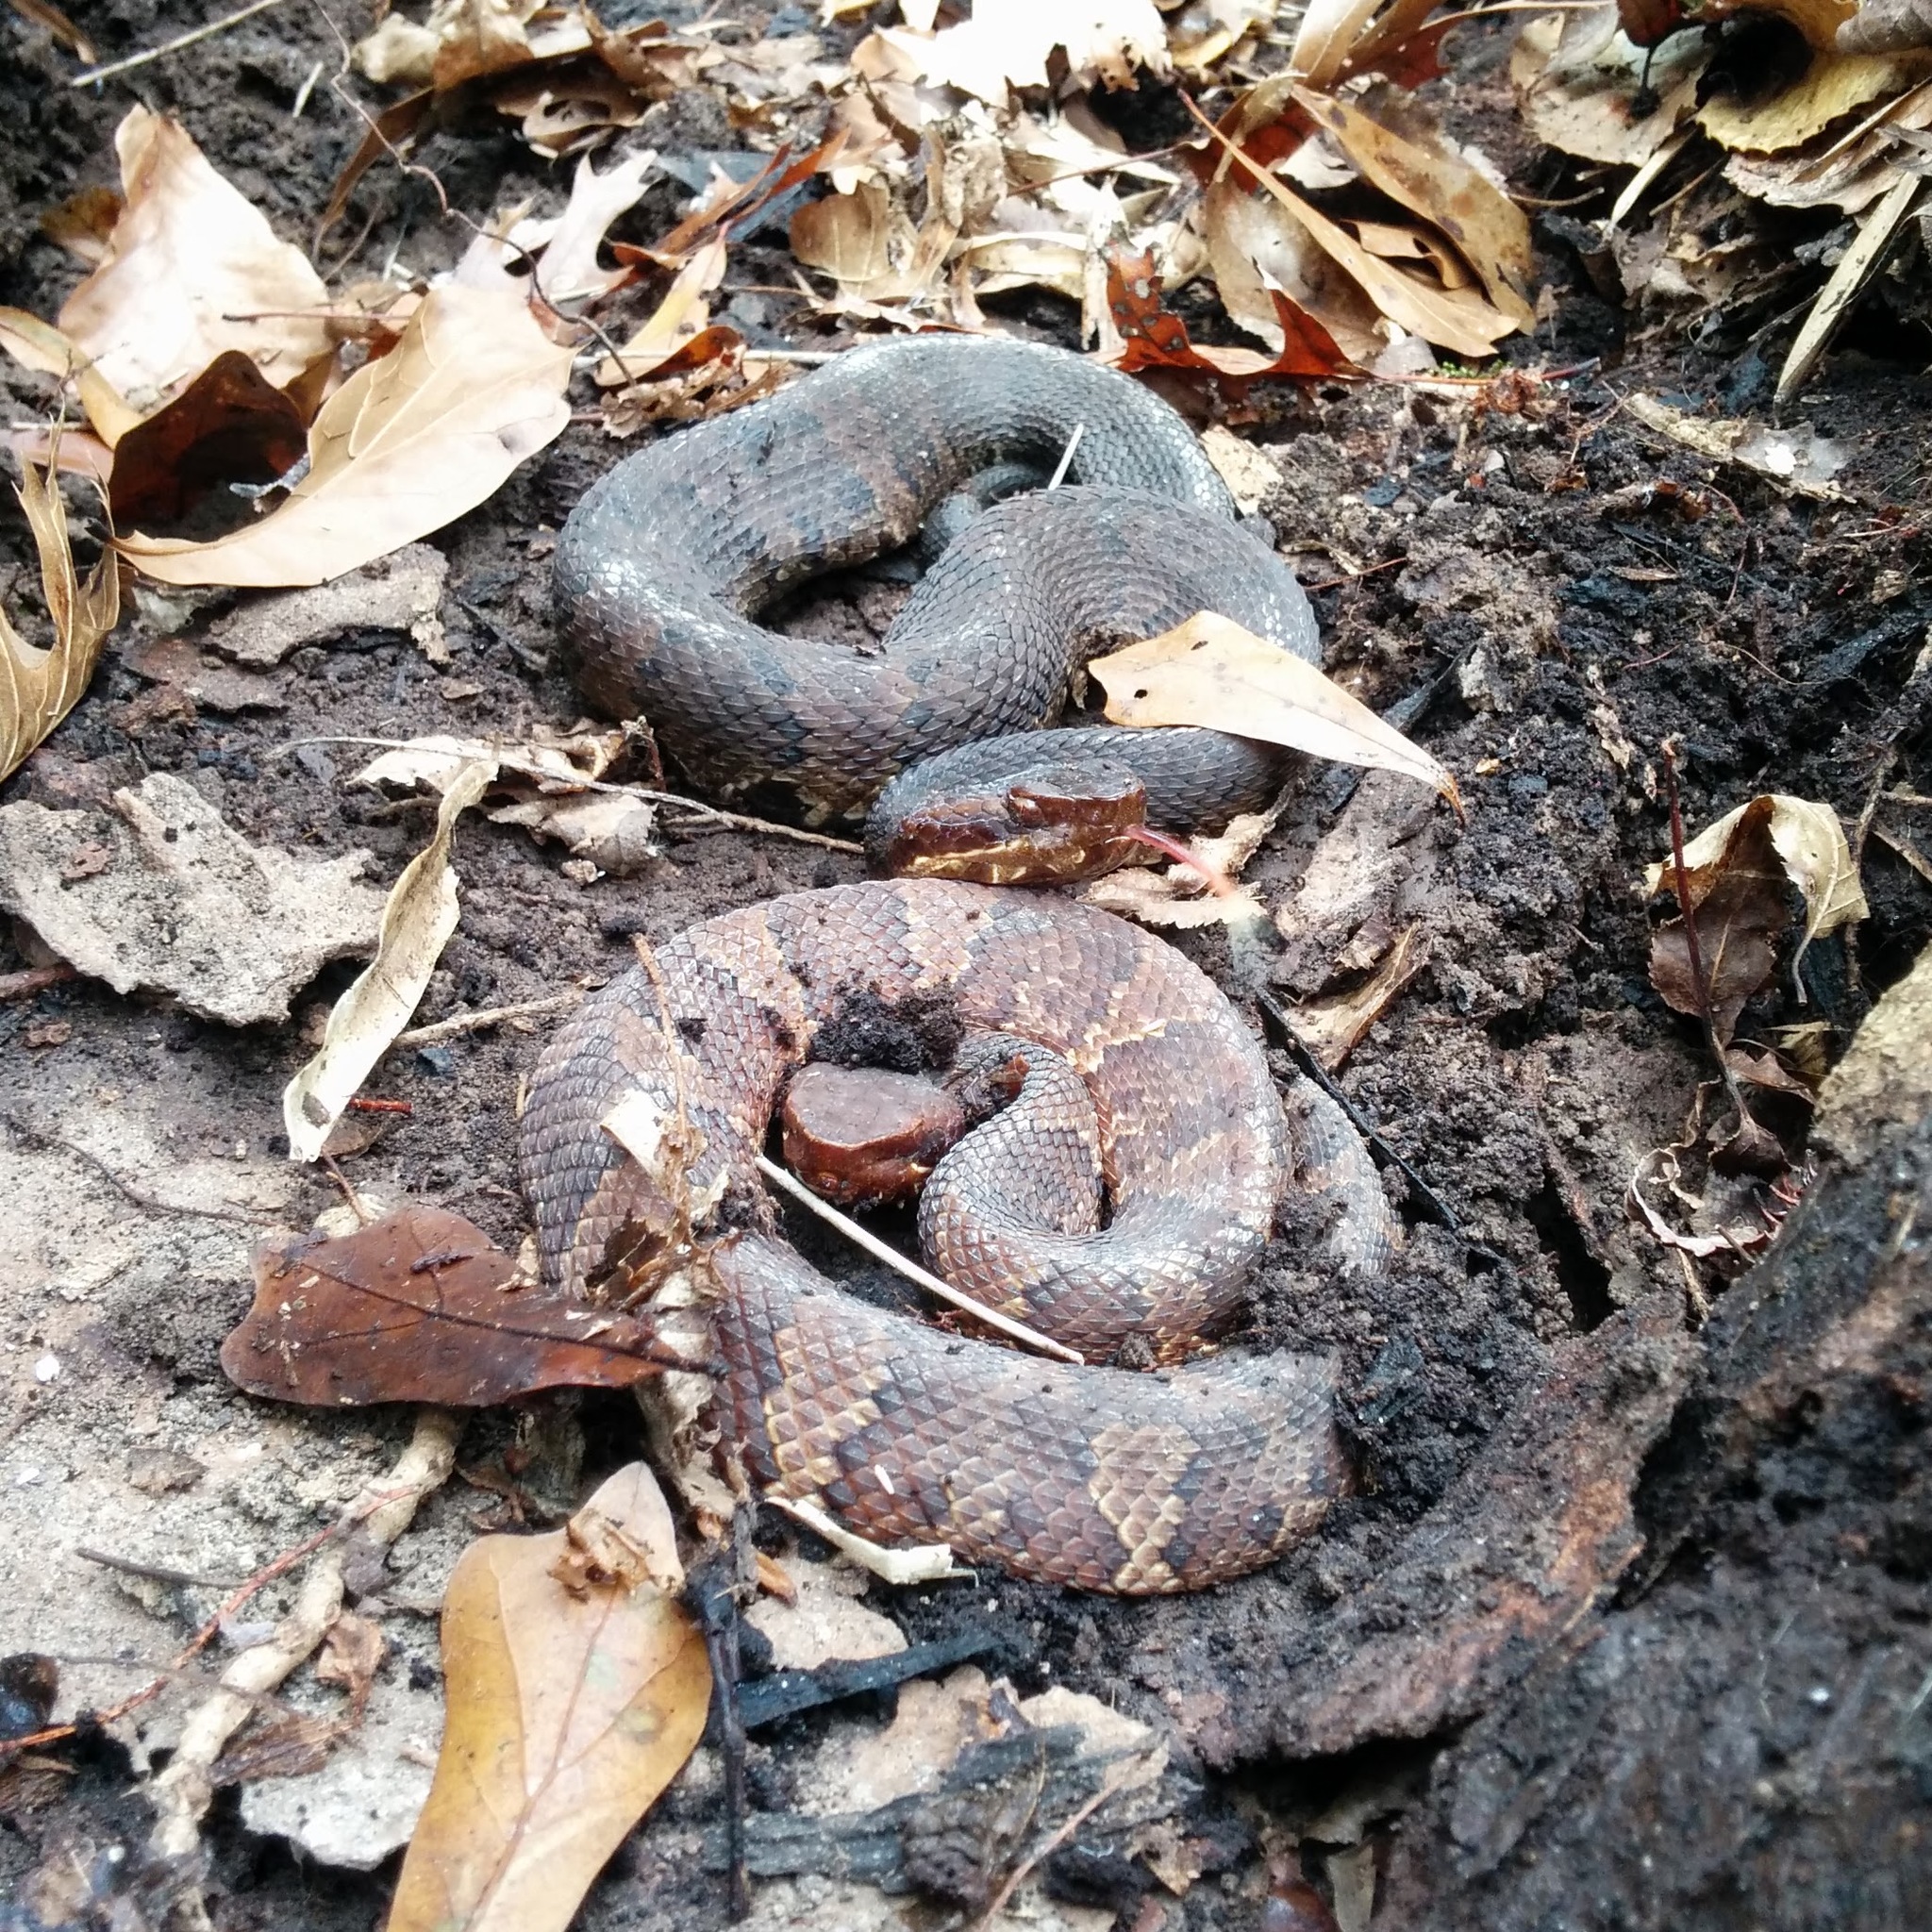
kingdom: Animalia
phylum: Chordata
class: Squamata
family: Viperidae
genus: Agkistrodon
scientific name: Agkistrodon piscivorus
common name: Cottonmouth
